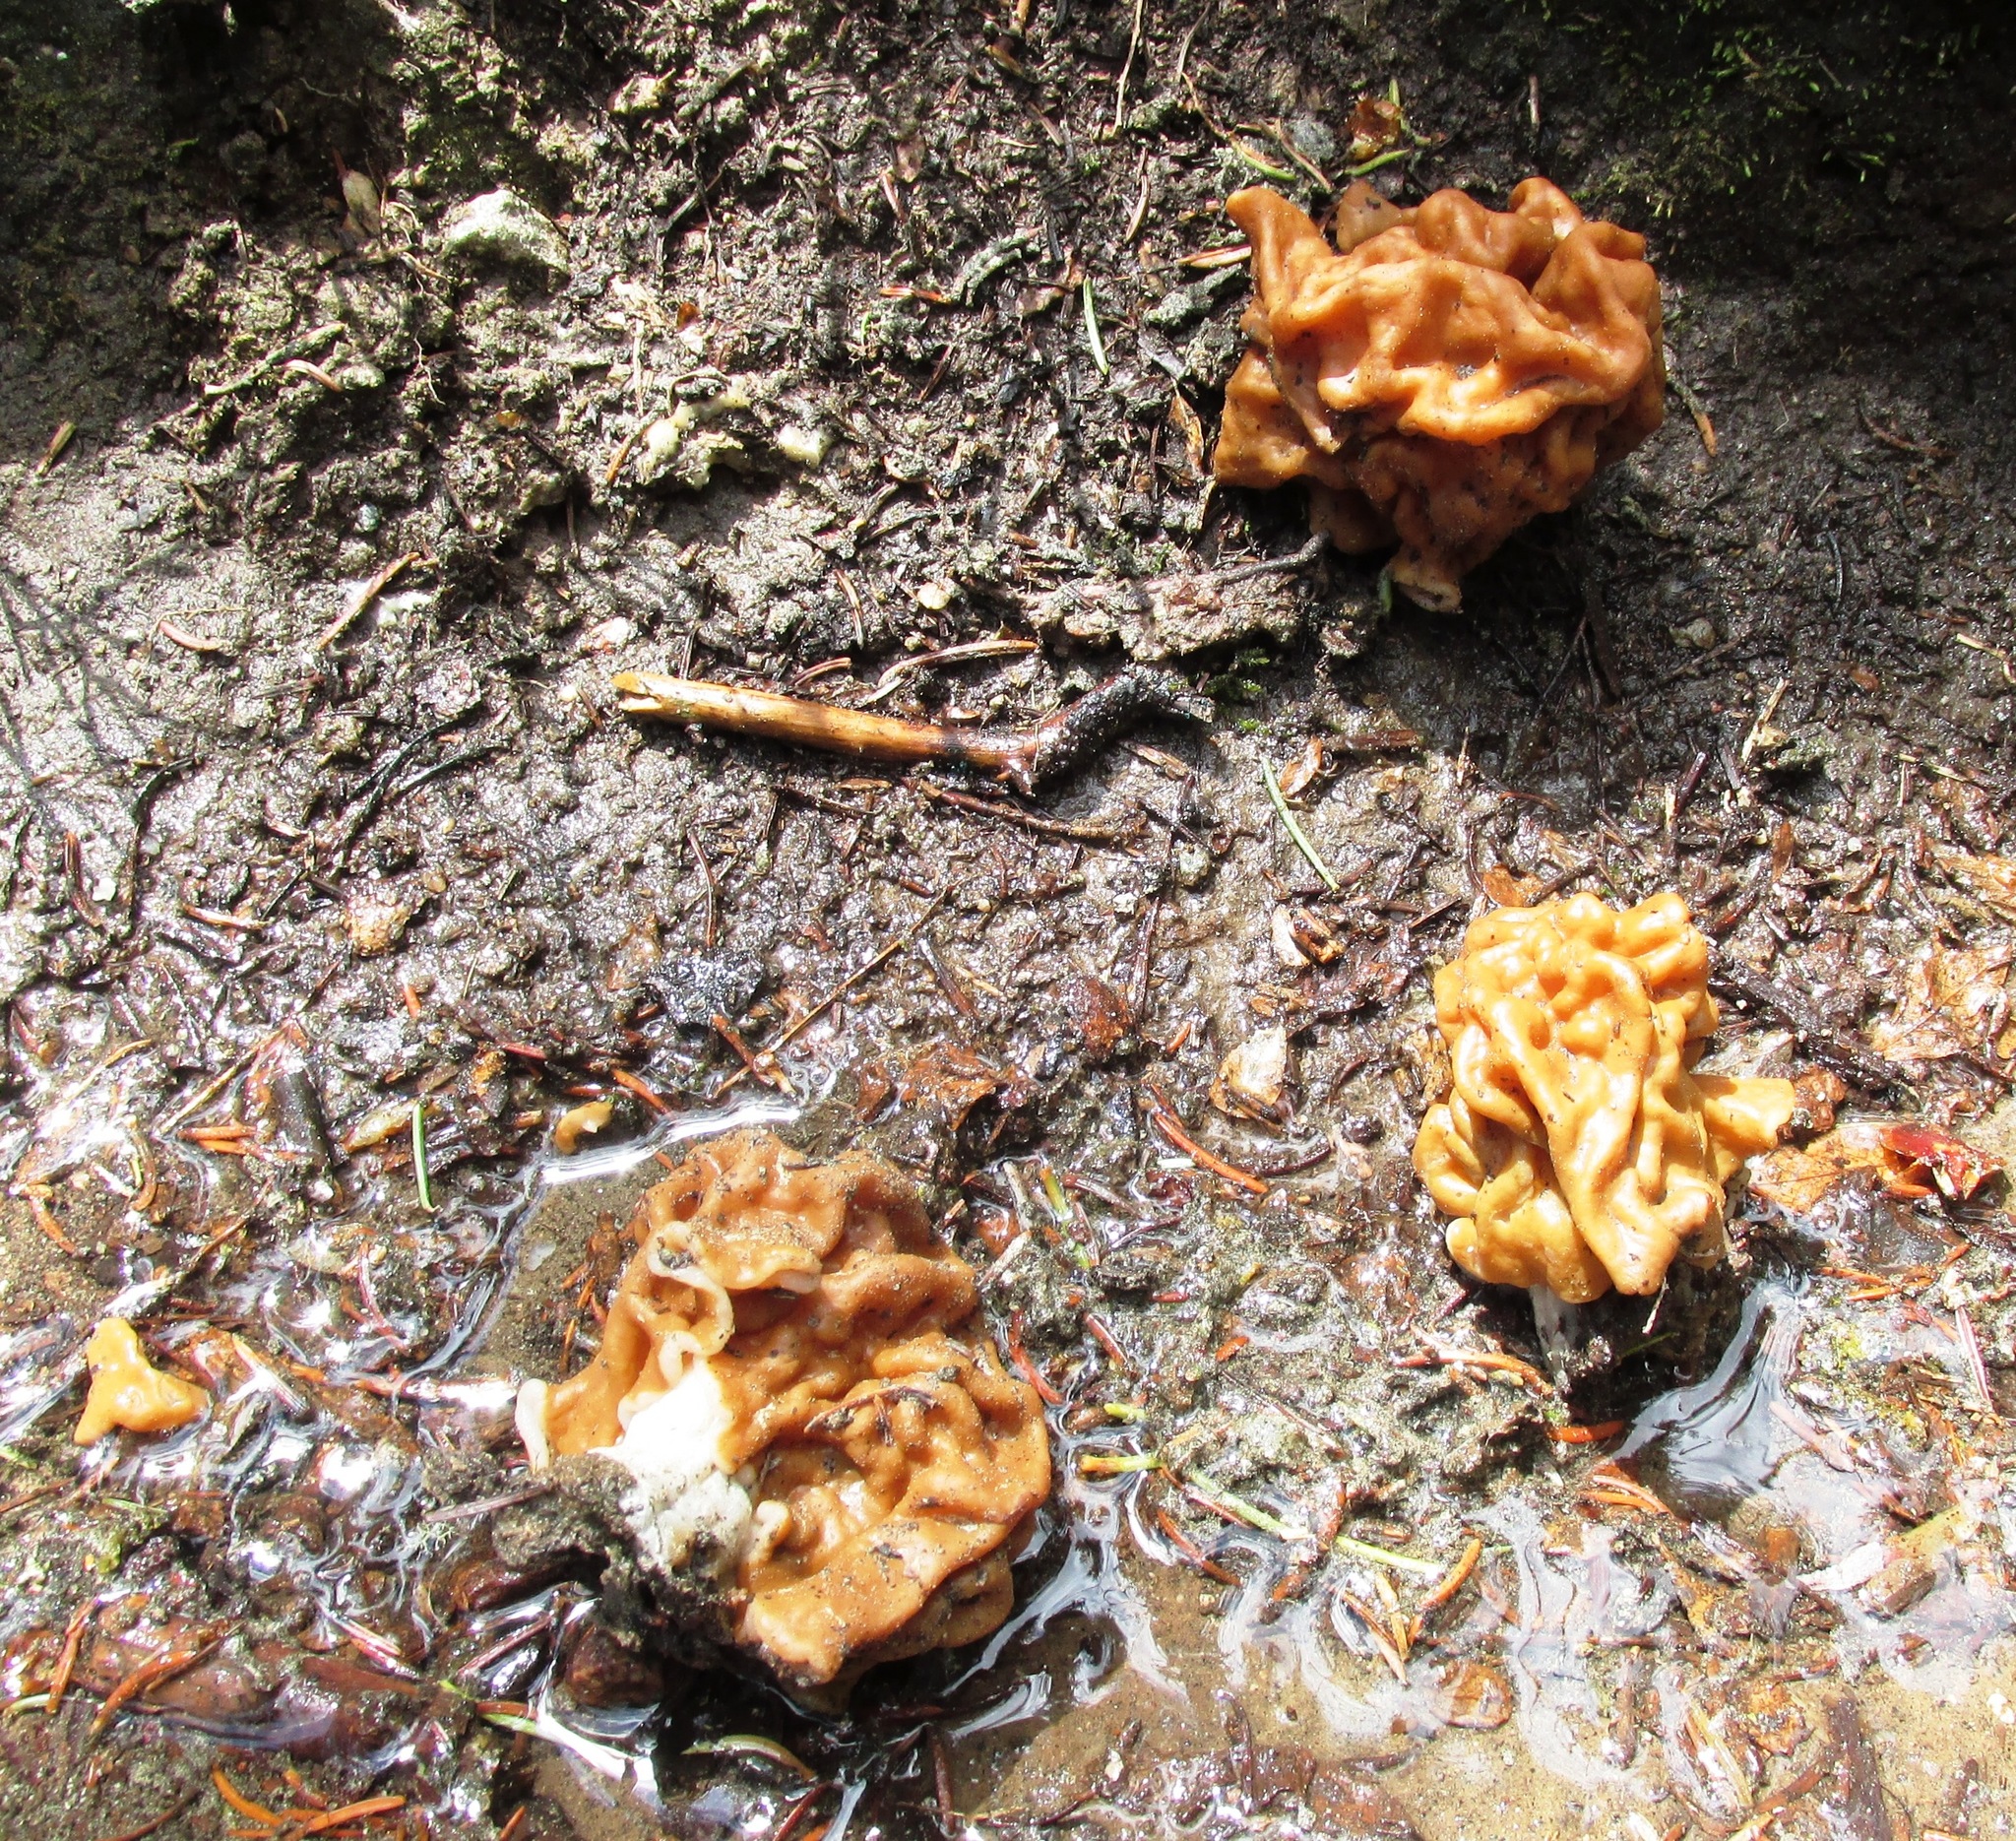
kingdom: Fungi
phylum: Ascomycota
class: Pezizomycetes
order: Pezizales
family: Discinaceae
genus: Discina
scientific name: Discina montana
